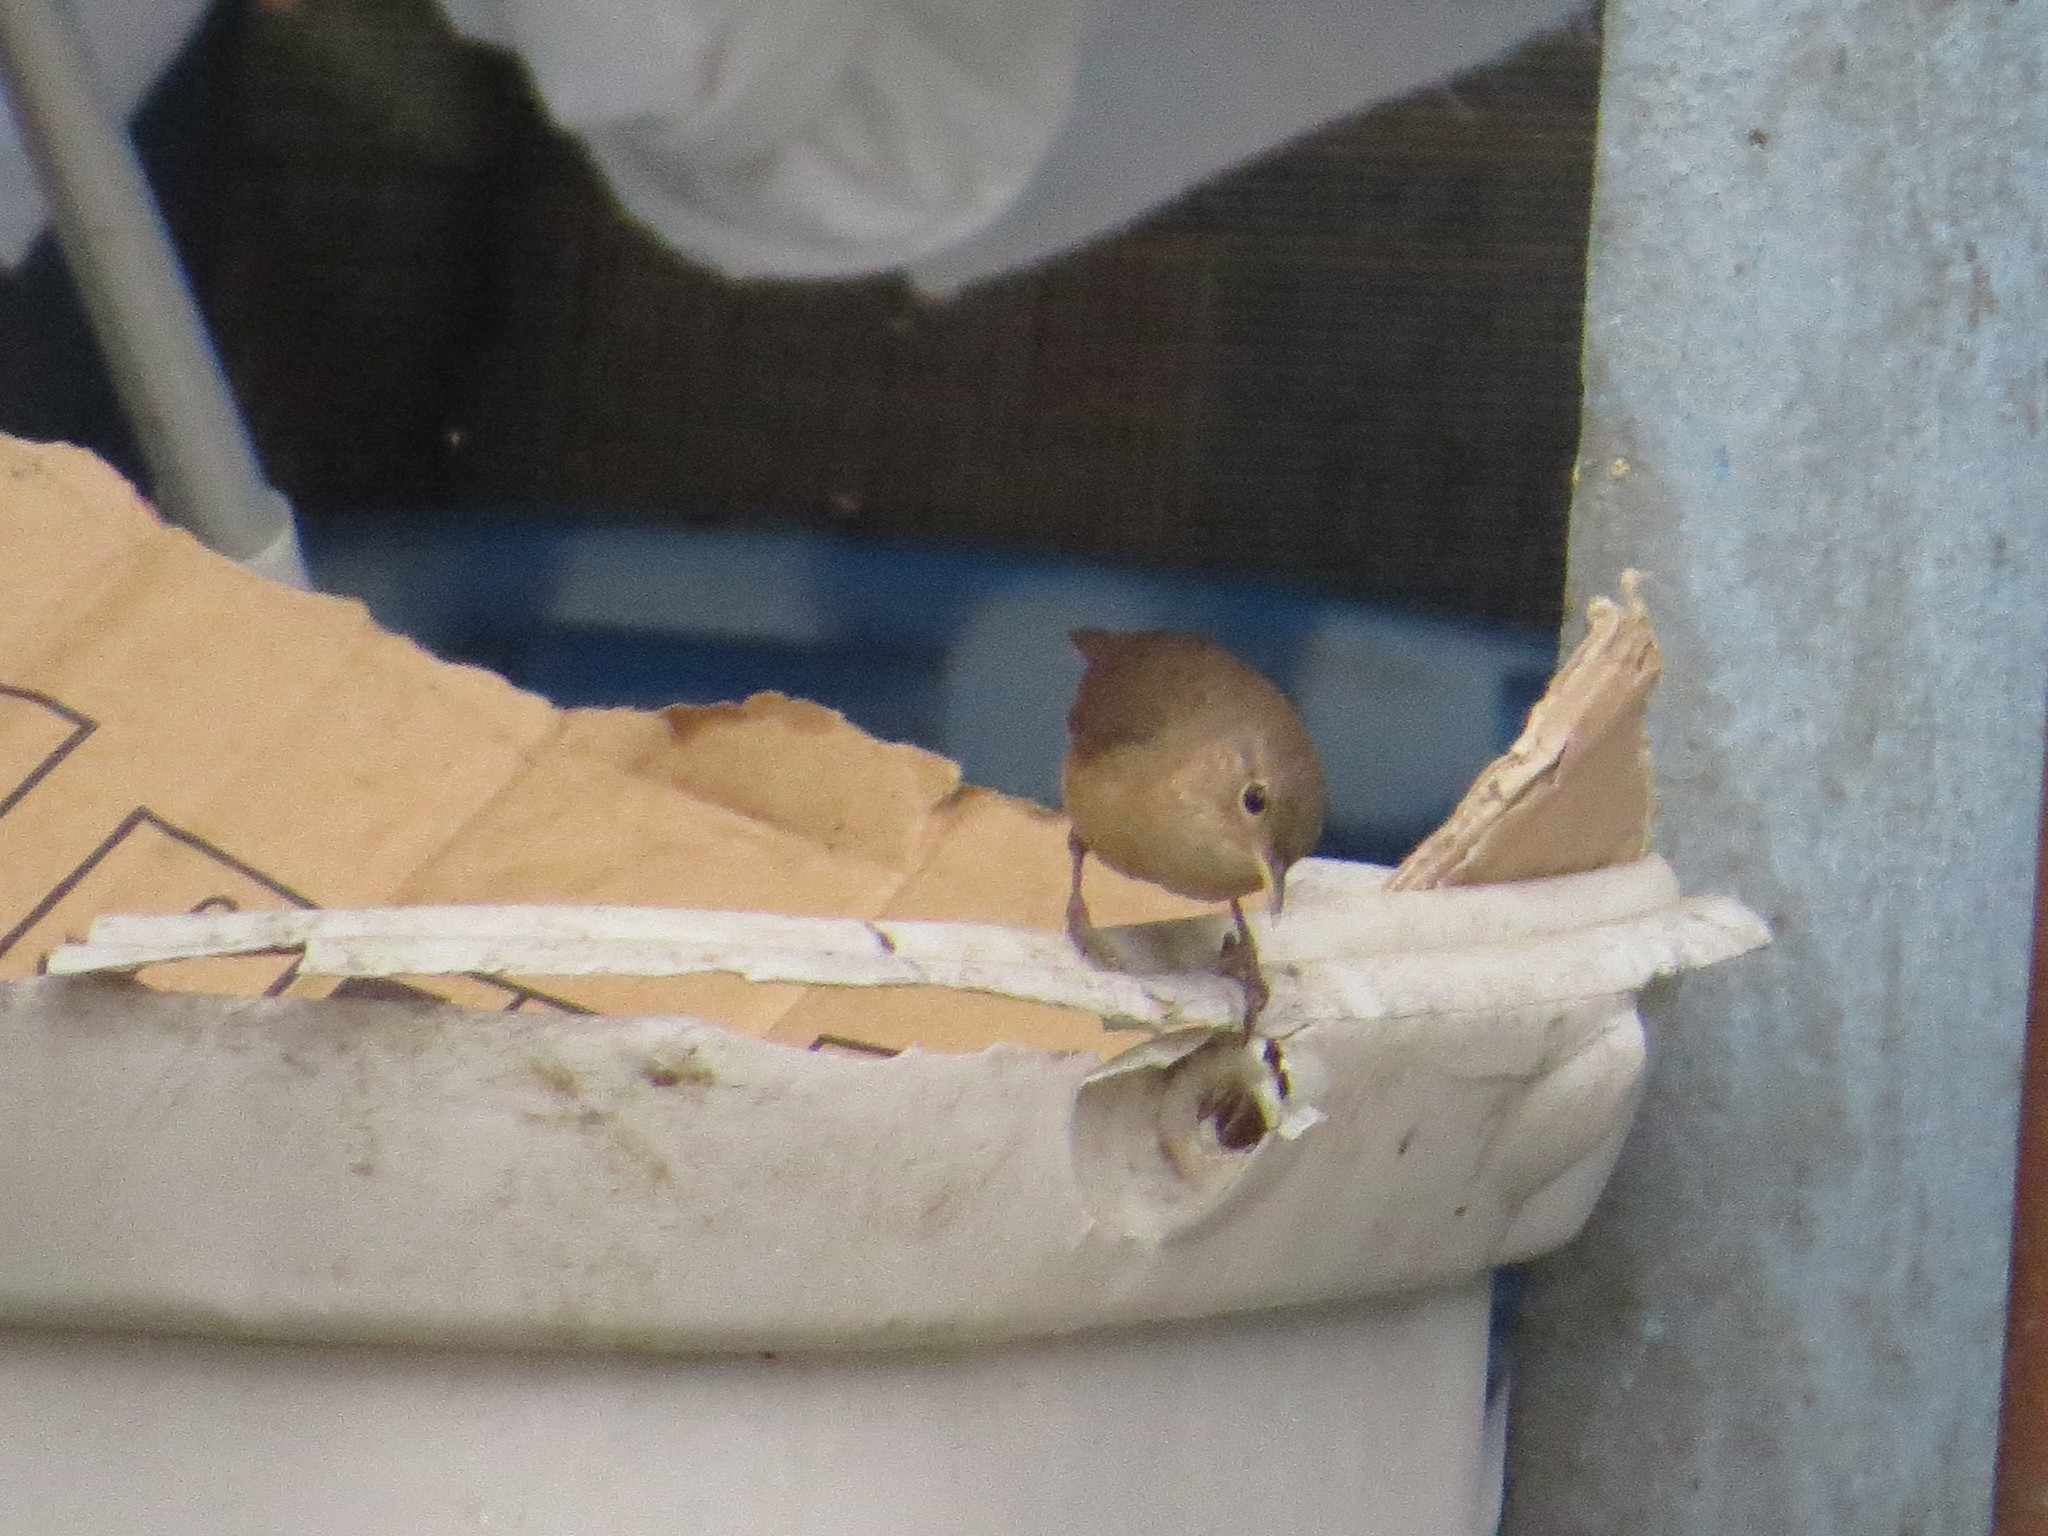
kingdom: Animalia
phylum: Chordata
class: Aves
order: Passeriformes
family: Troglodytidae
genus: Troglodytes
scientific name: Troglodytes aedon
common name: House wren
